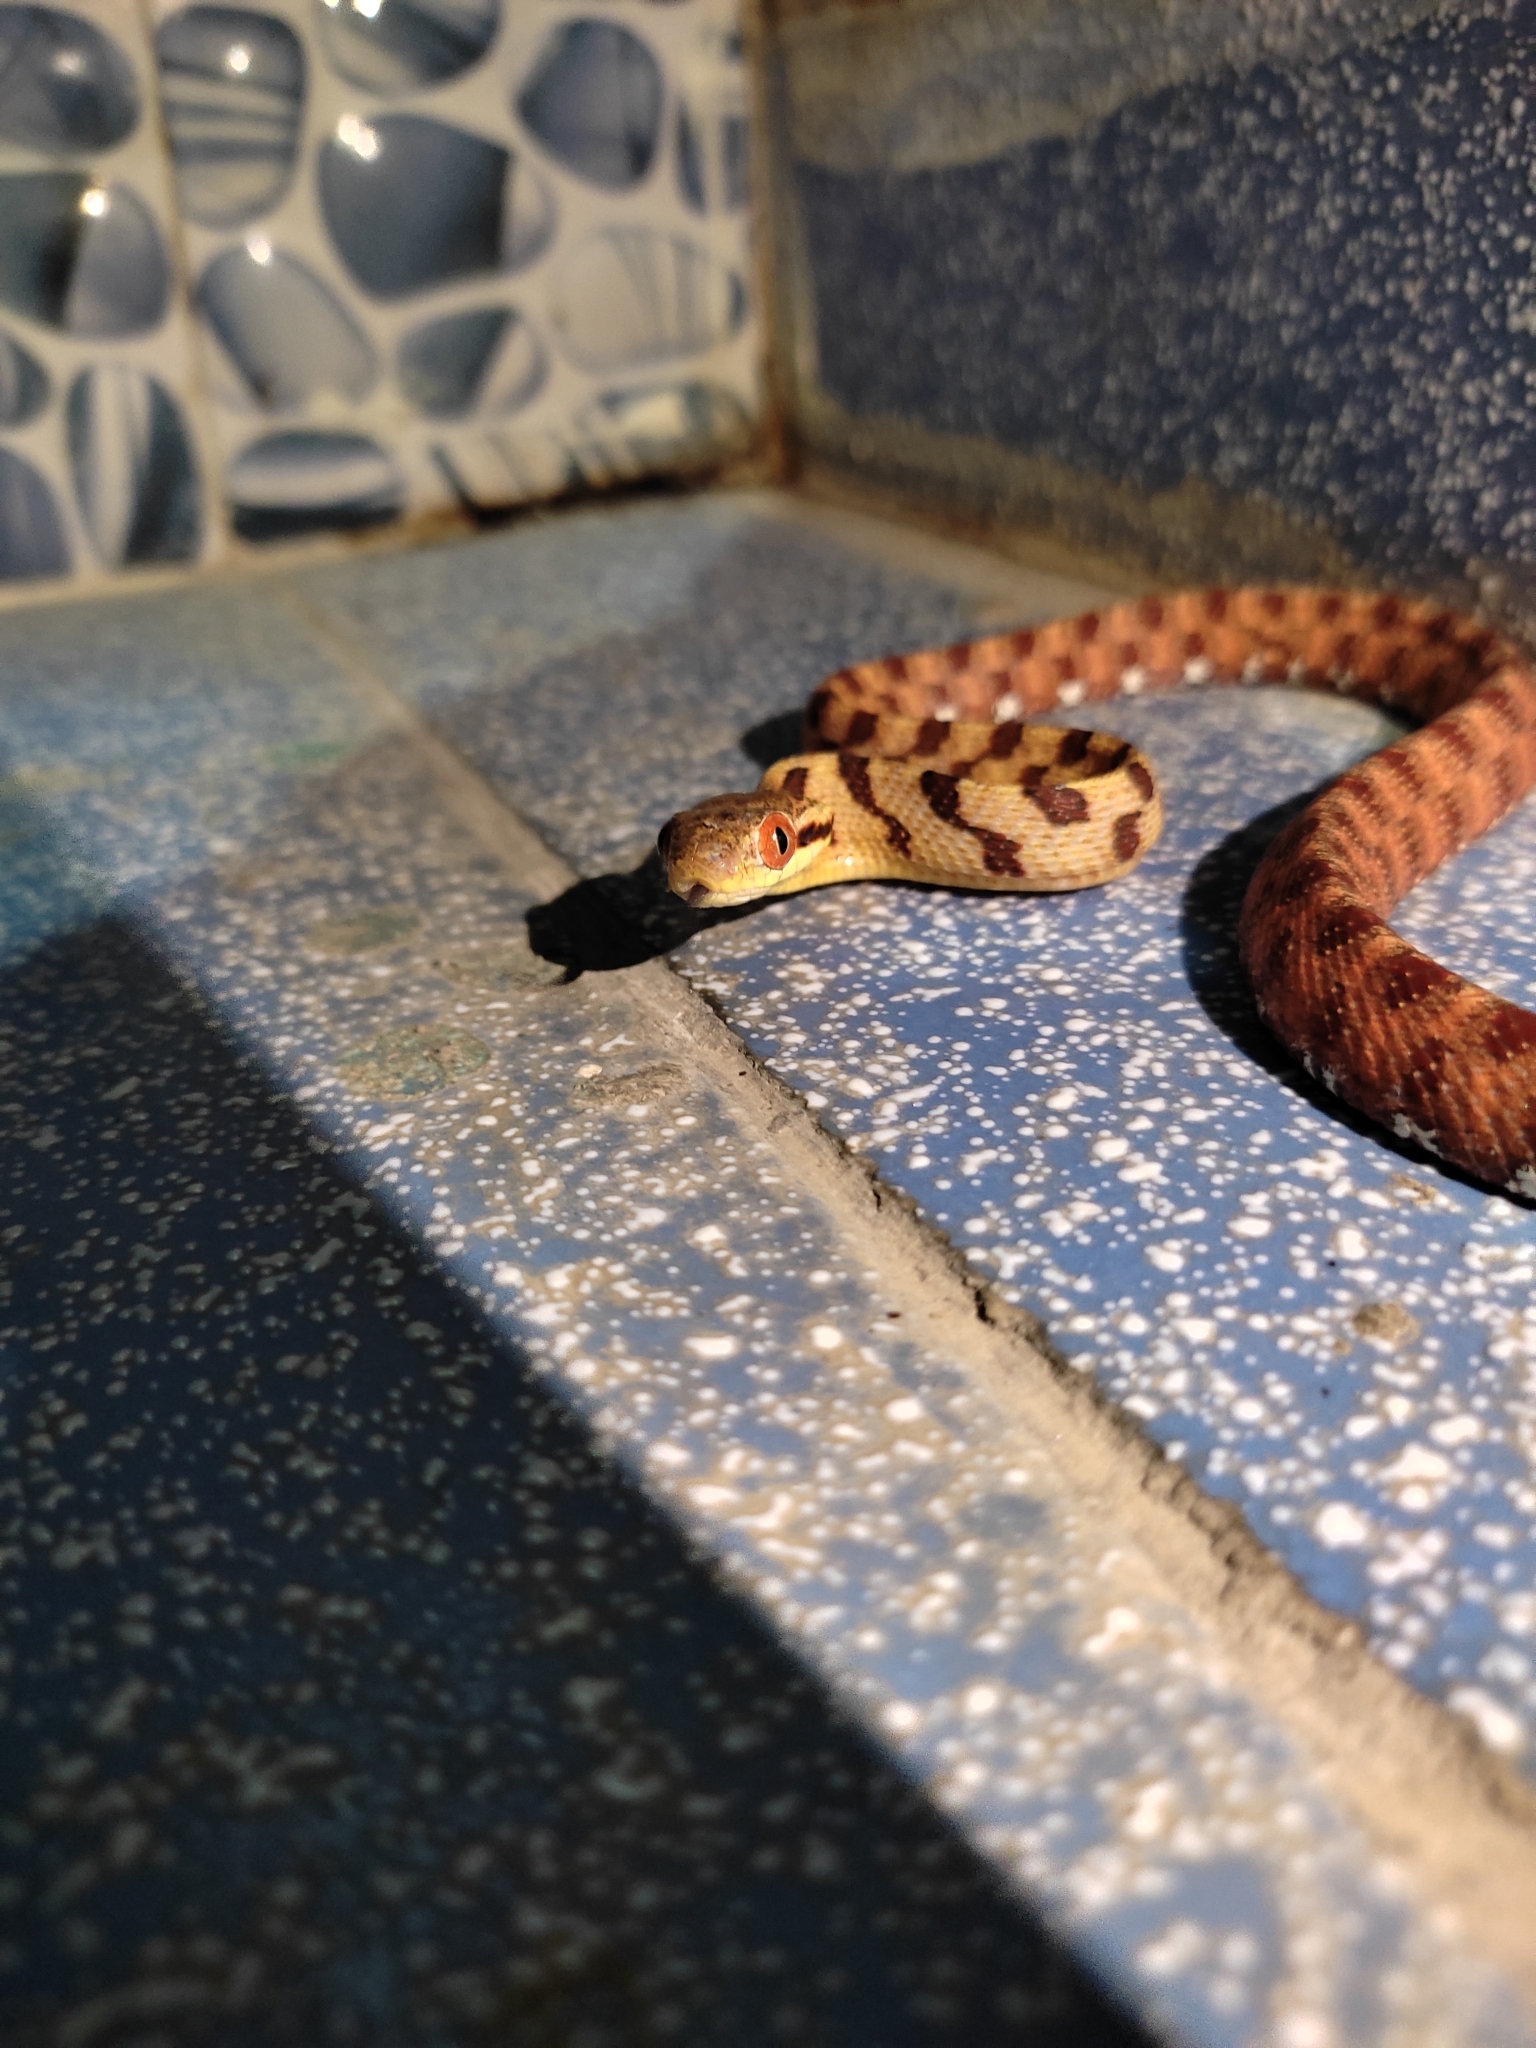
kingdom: Animalia
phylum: Chordata
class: Squamata
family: Colubridae
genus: Boiga
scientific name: Boiga siamensis
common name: Eyed cat snake
